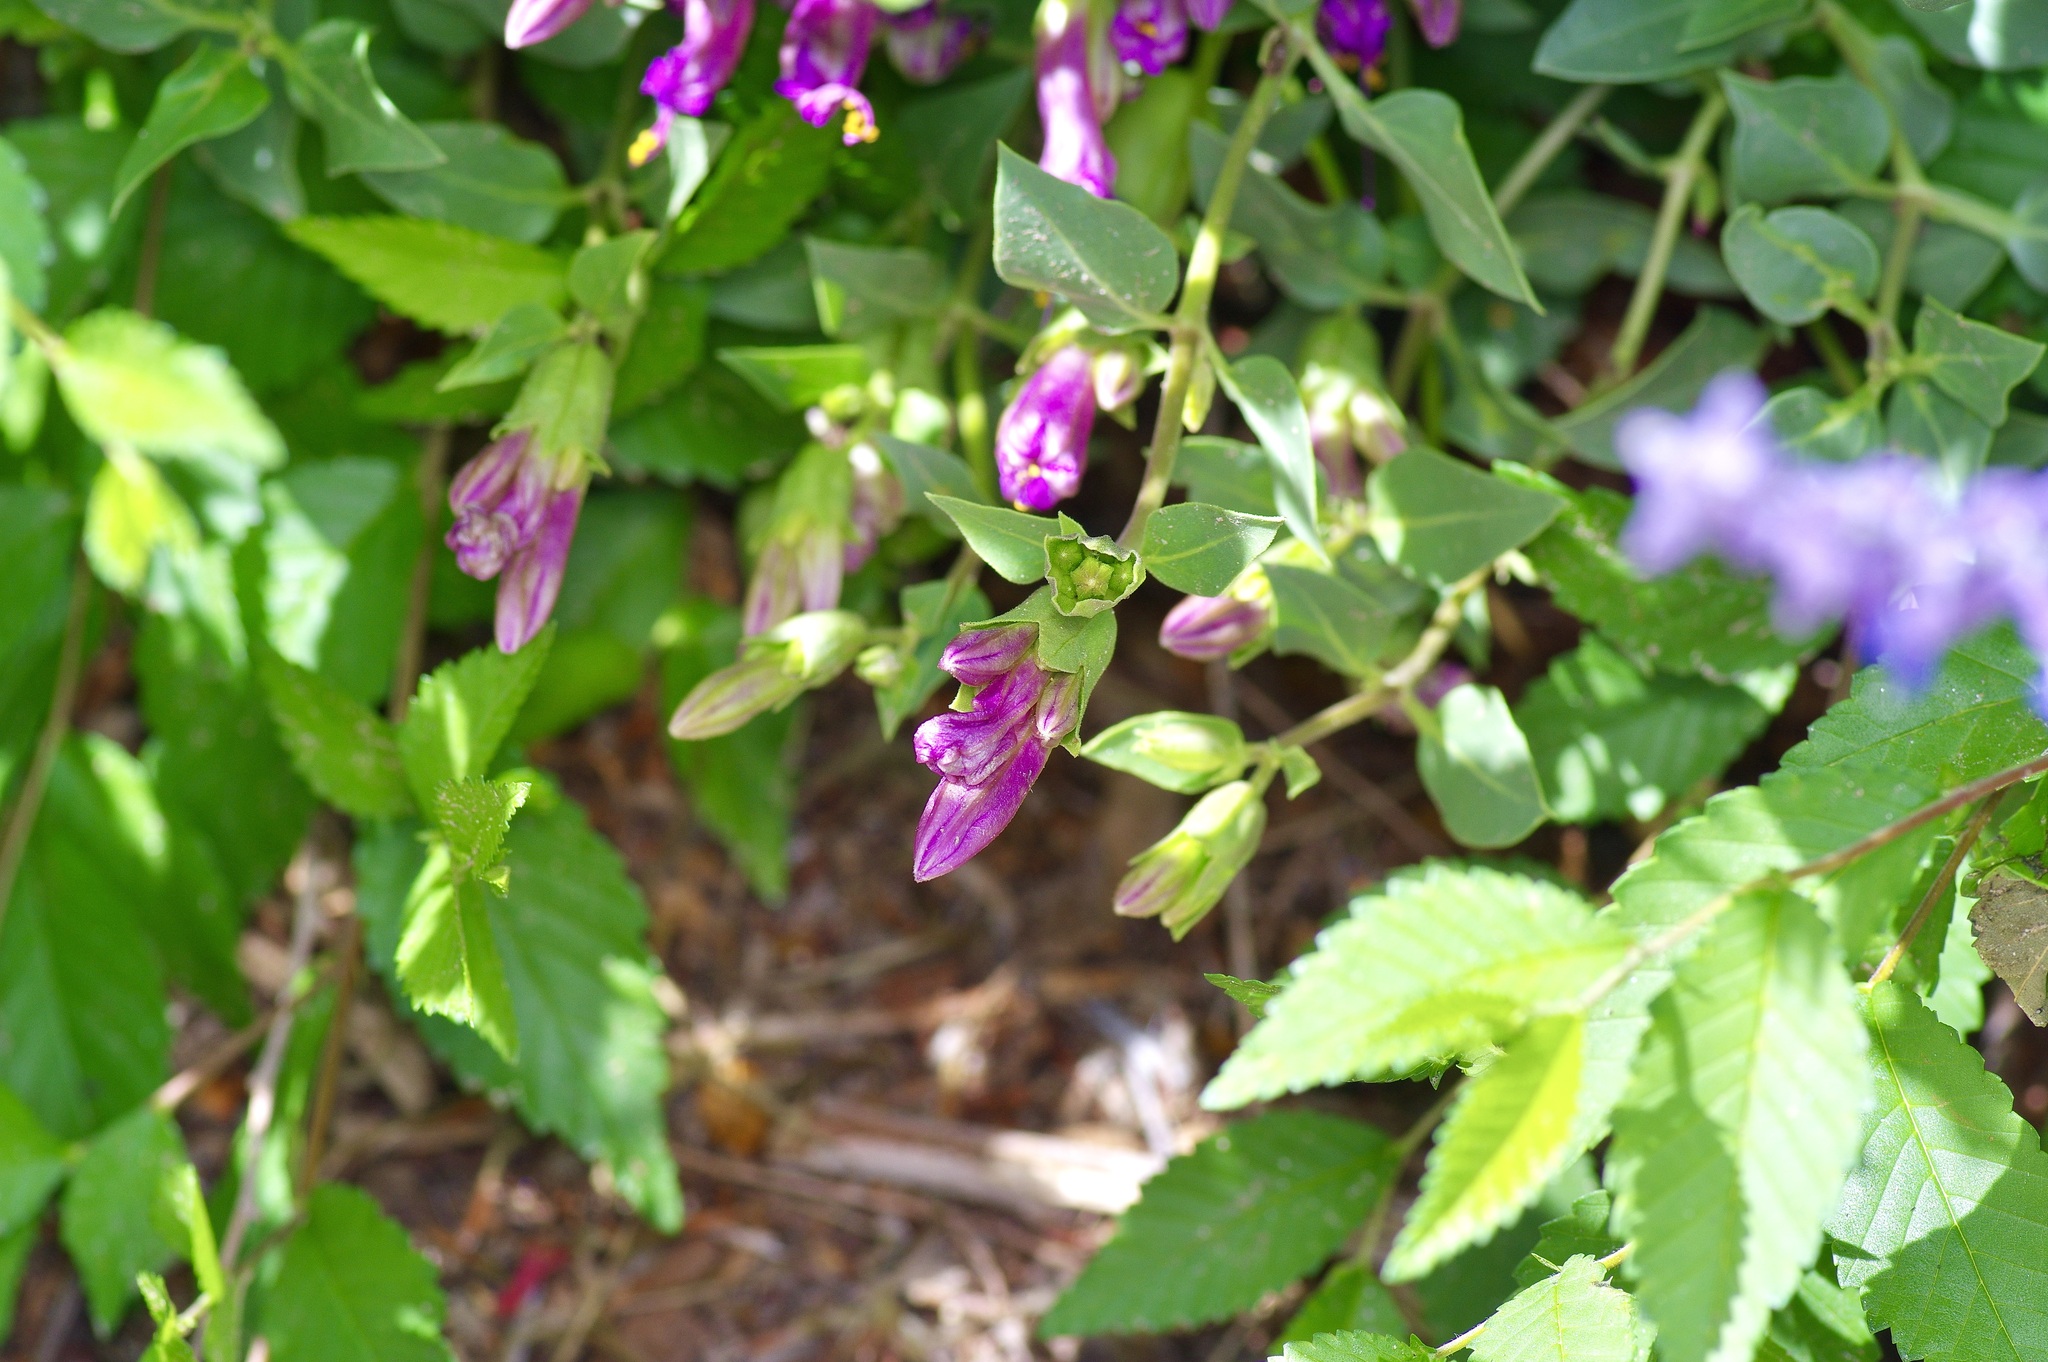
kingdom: Plantae
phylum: Tracheophyta
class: Magnoliopsida
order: Caryophyllales
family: Nyctaginaceae
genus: Mirabilis
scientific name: Mirabilis multiflora
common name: Froebel's four-o'clock
